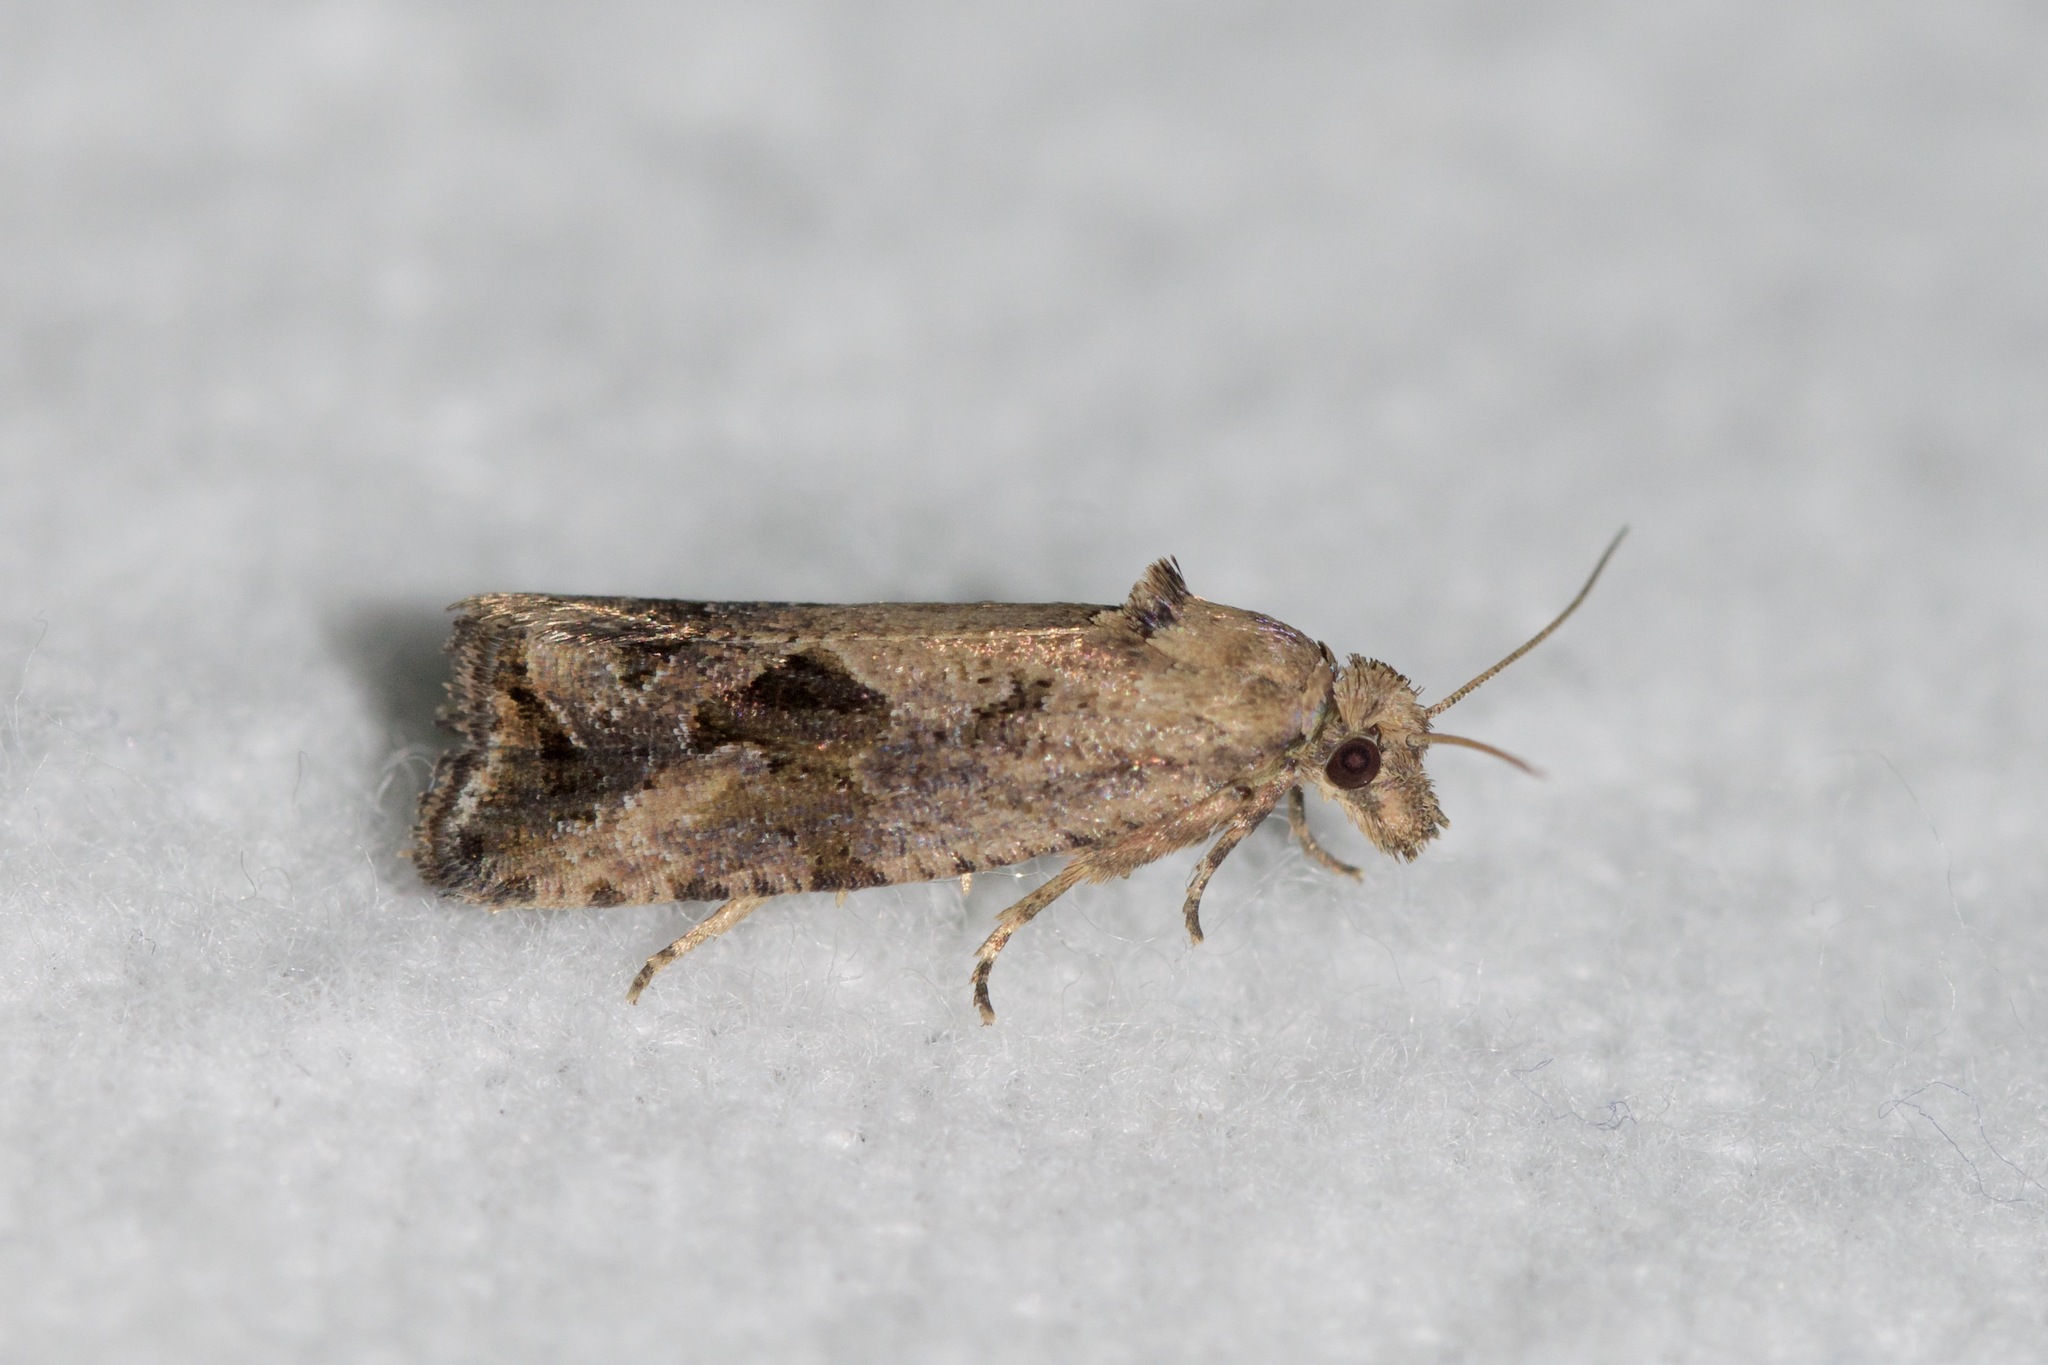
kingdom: Animalia
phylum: Arthropoda
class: Insecta
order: Lepidoptera
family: Tortricidae
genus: Endothenia
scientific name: Endothenia nubilana
